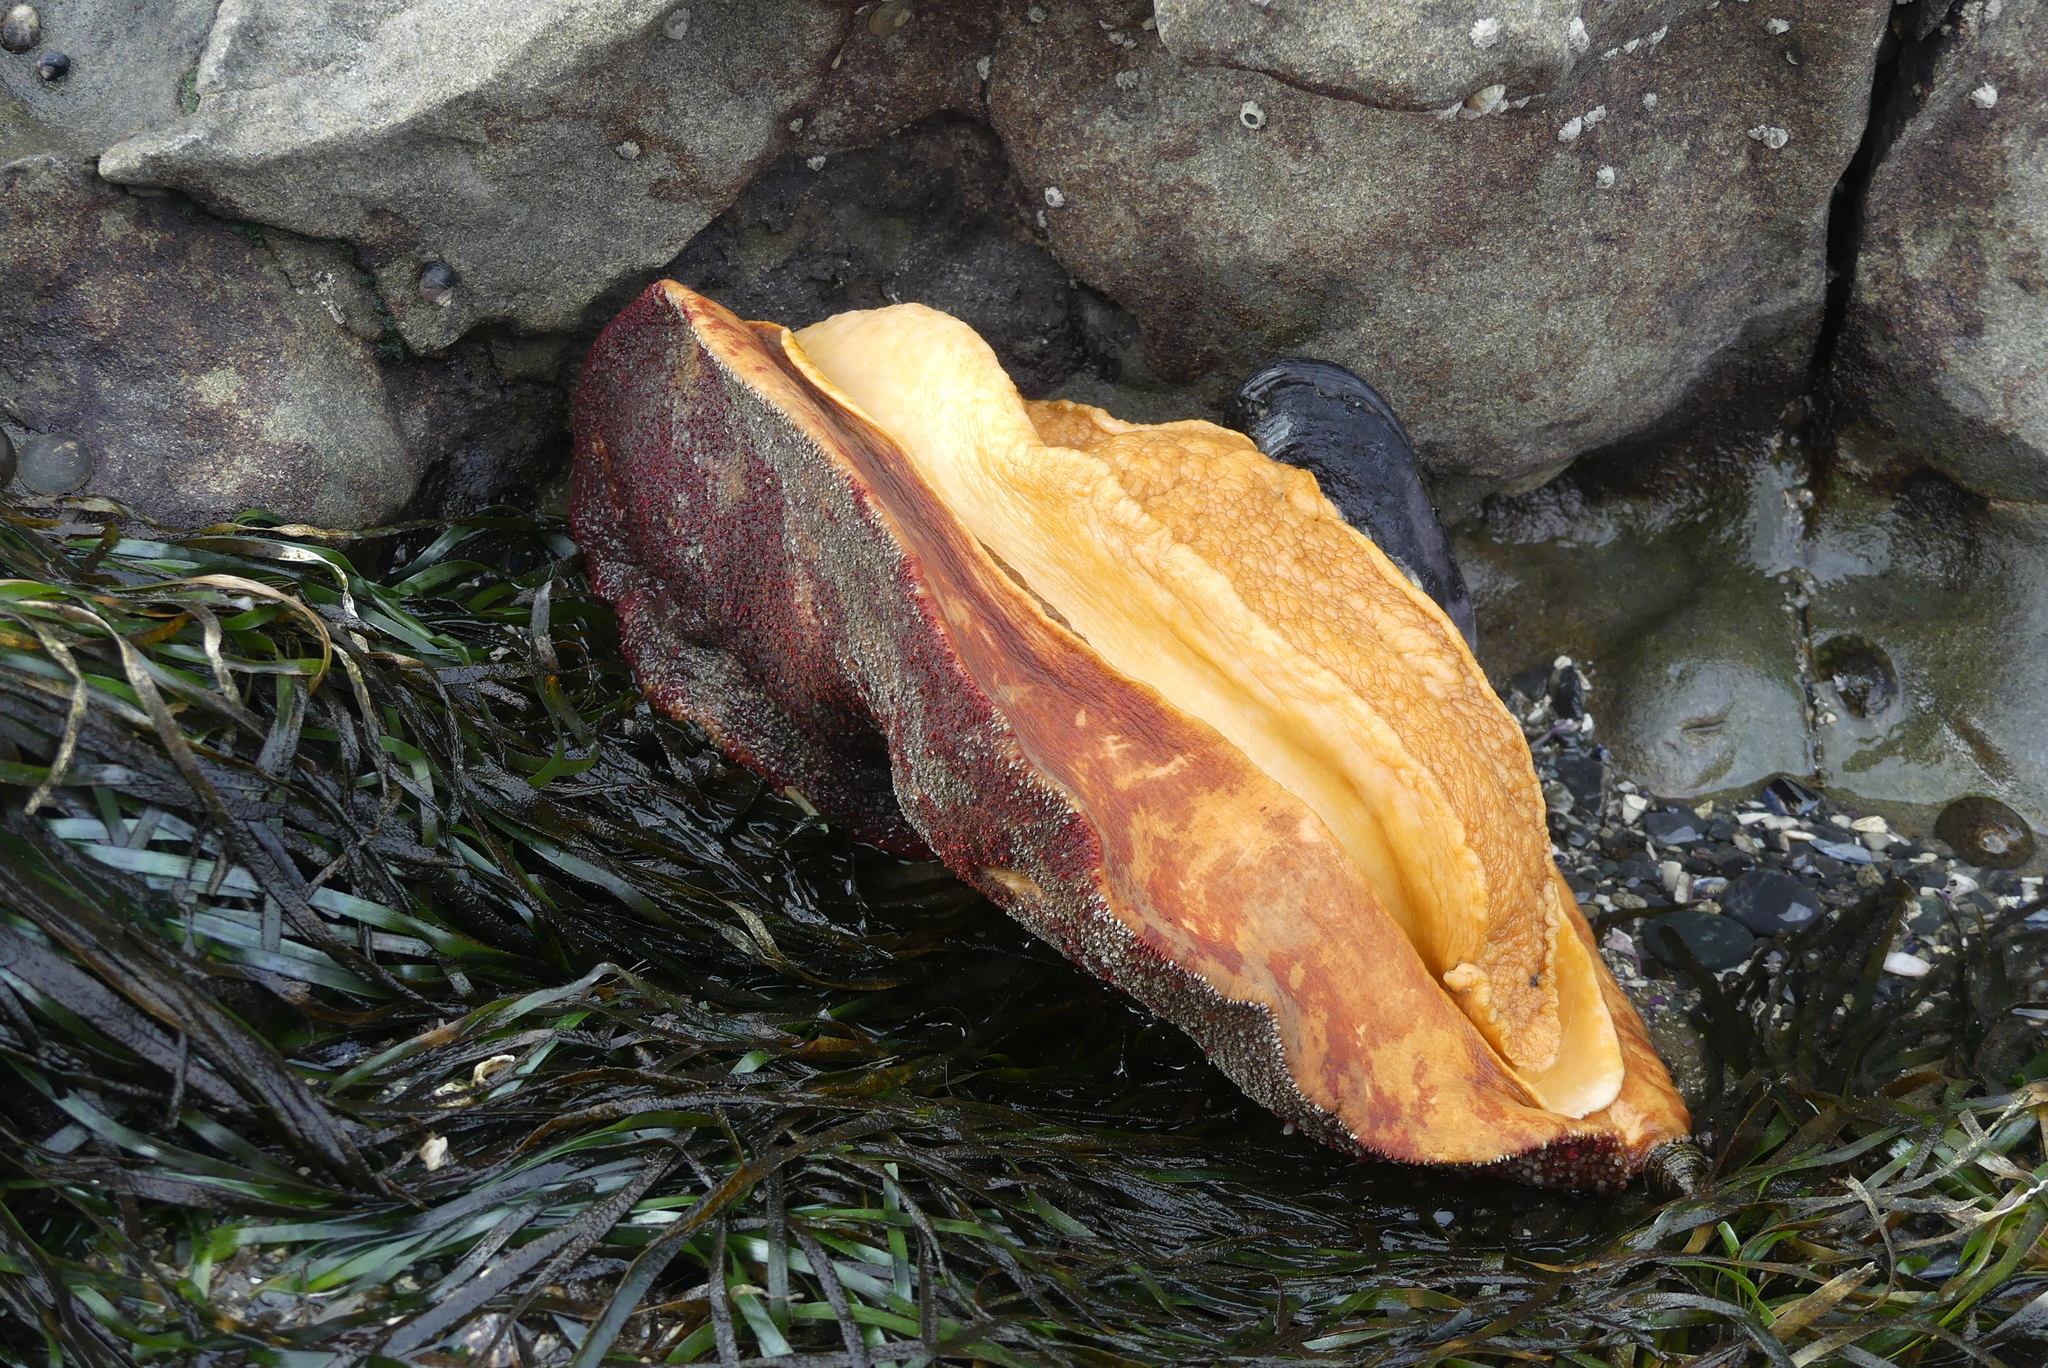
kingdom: Animalia
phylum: Mollusca
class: Polyplacophora
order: Chitonida
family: Acanthochitonidae
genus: Cryptochiton
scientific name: Cryptochiton stelleri
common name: Giant pacific chiton
